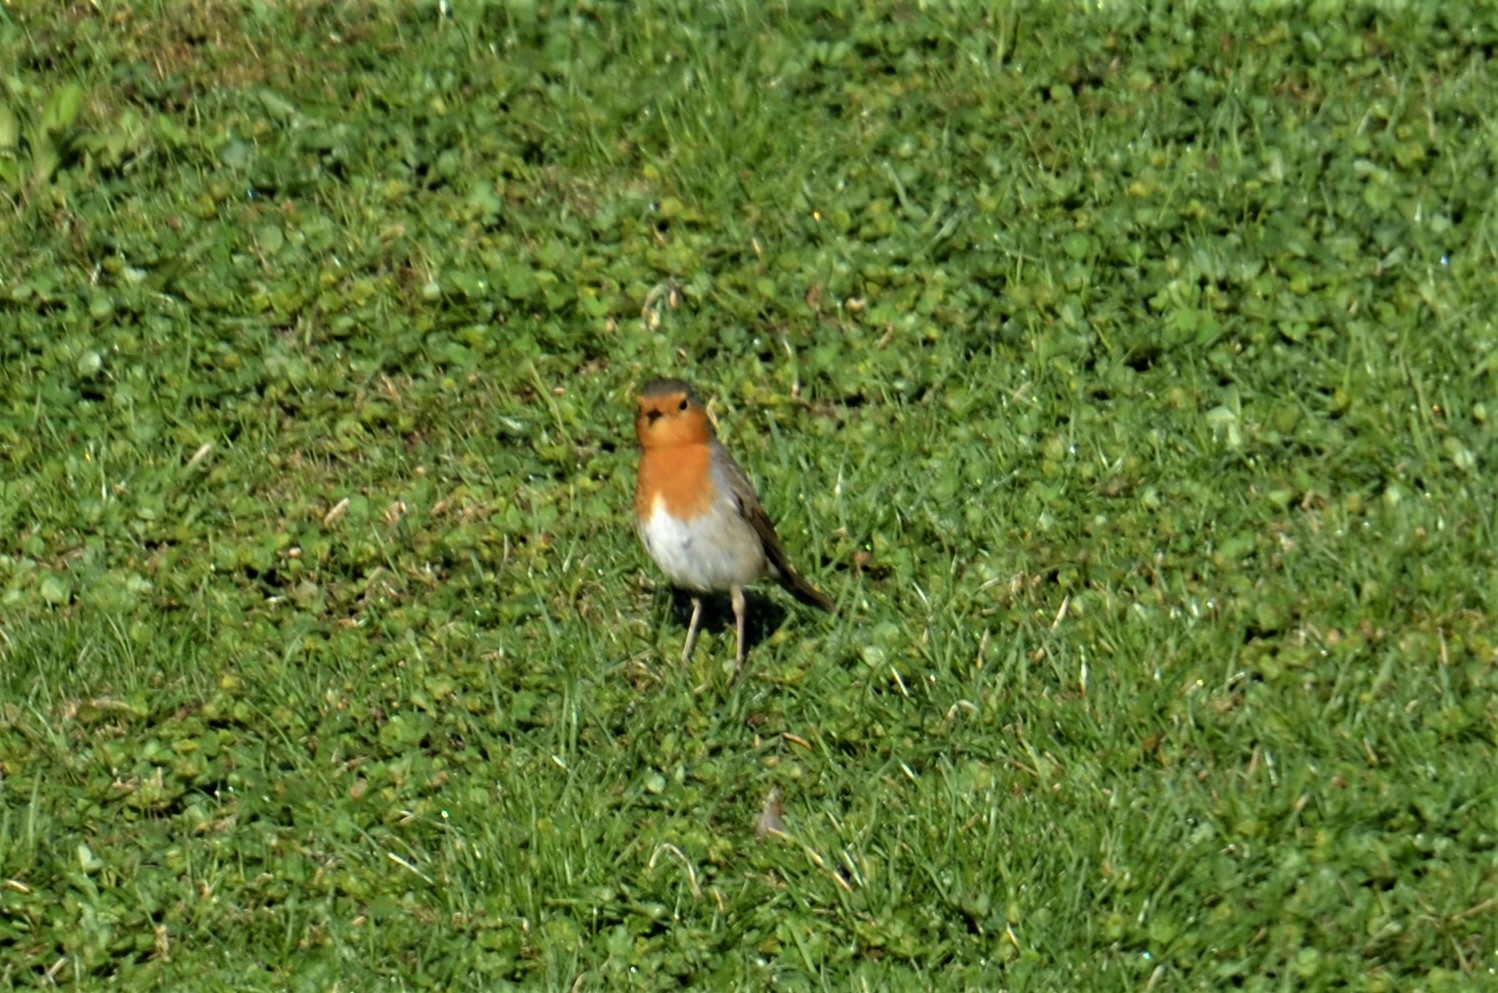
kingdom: Animalia
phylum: Chordata
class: Aves
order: Passeriformes
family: Muscicapidae
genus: Erithacus
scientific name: Erithacus rubecula
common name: European robin
